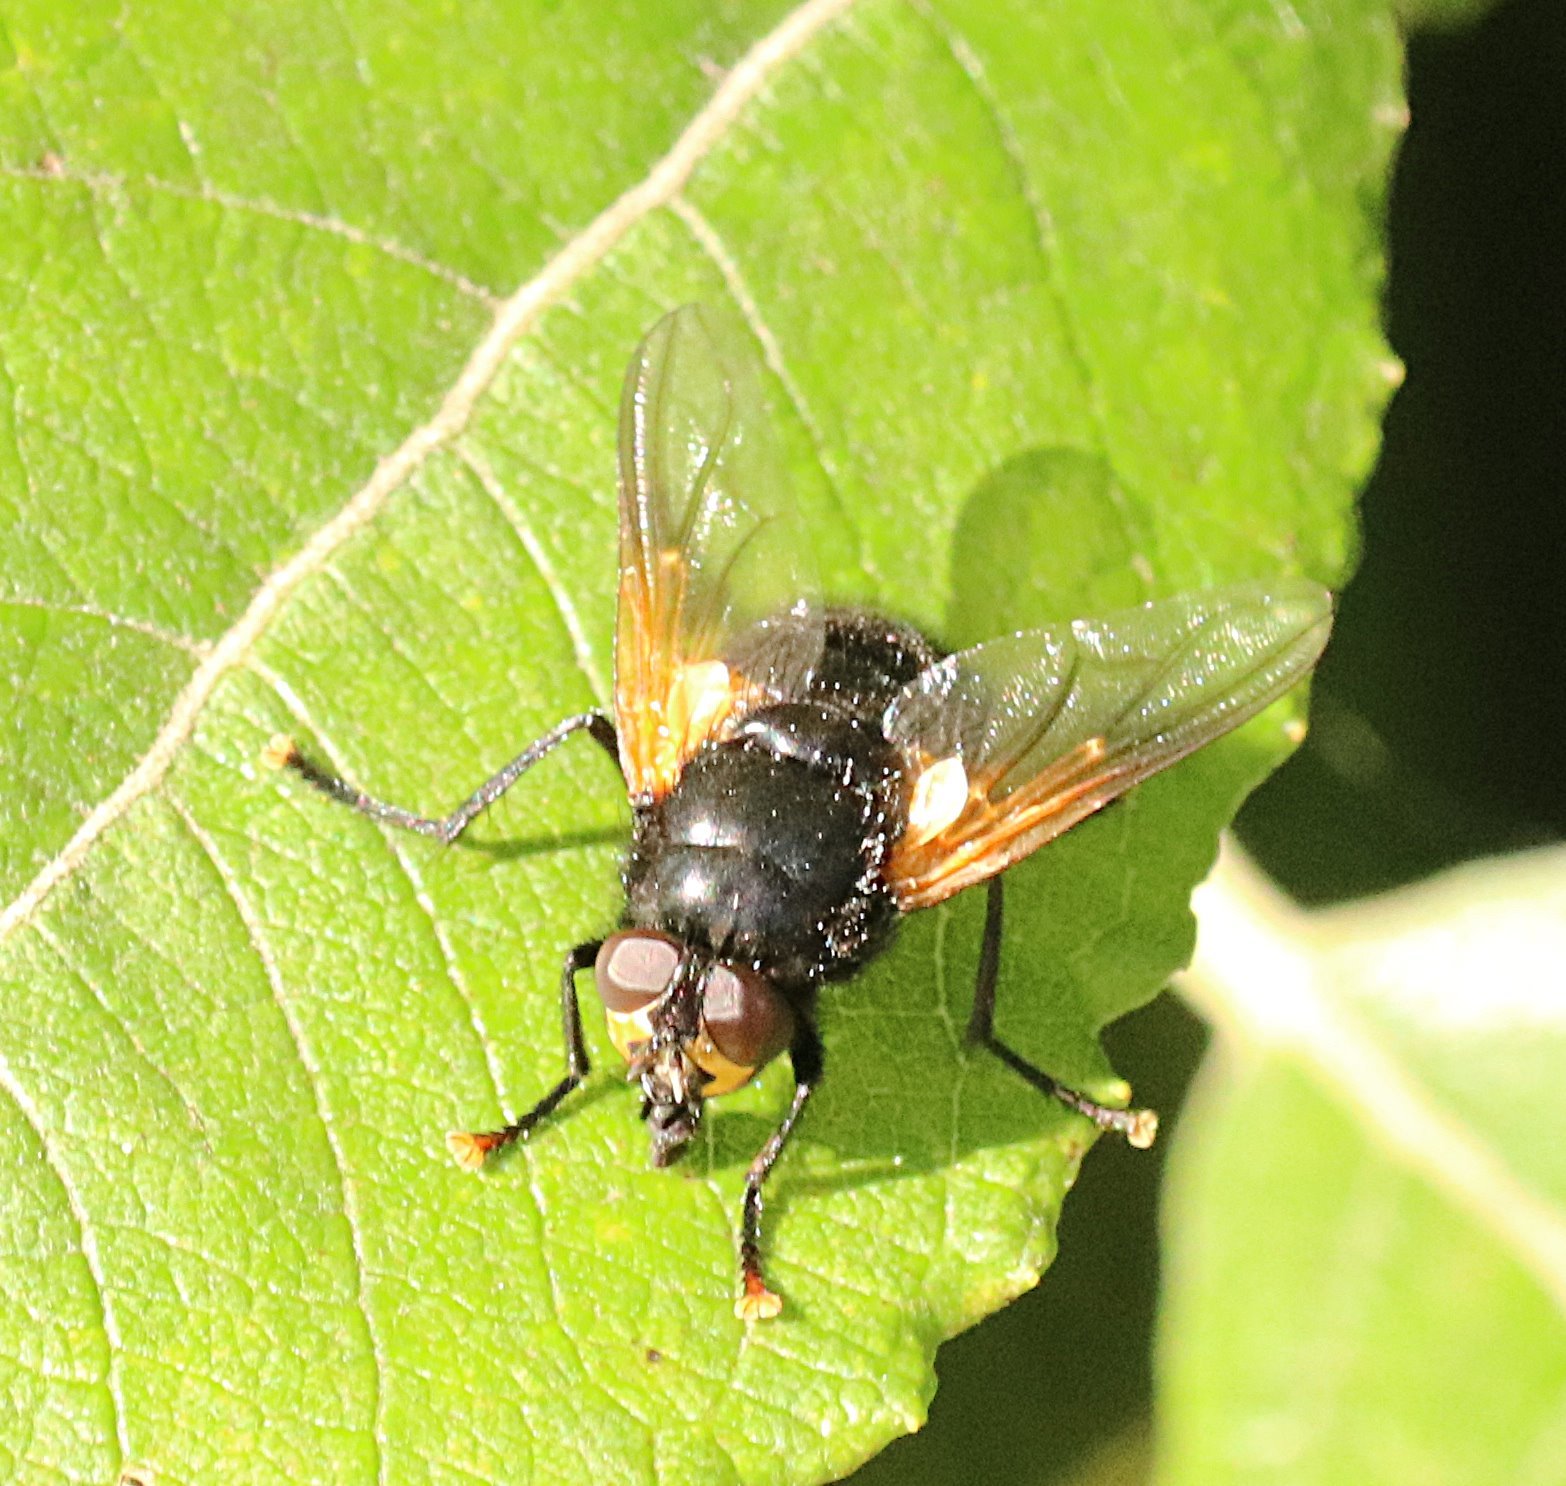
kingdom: Animalia
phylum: Arthropoda
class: Insecta
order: Diptera
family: Muscidae
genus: Mesembrina
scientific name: Mesembrina meridiana
